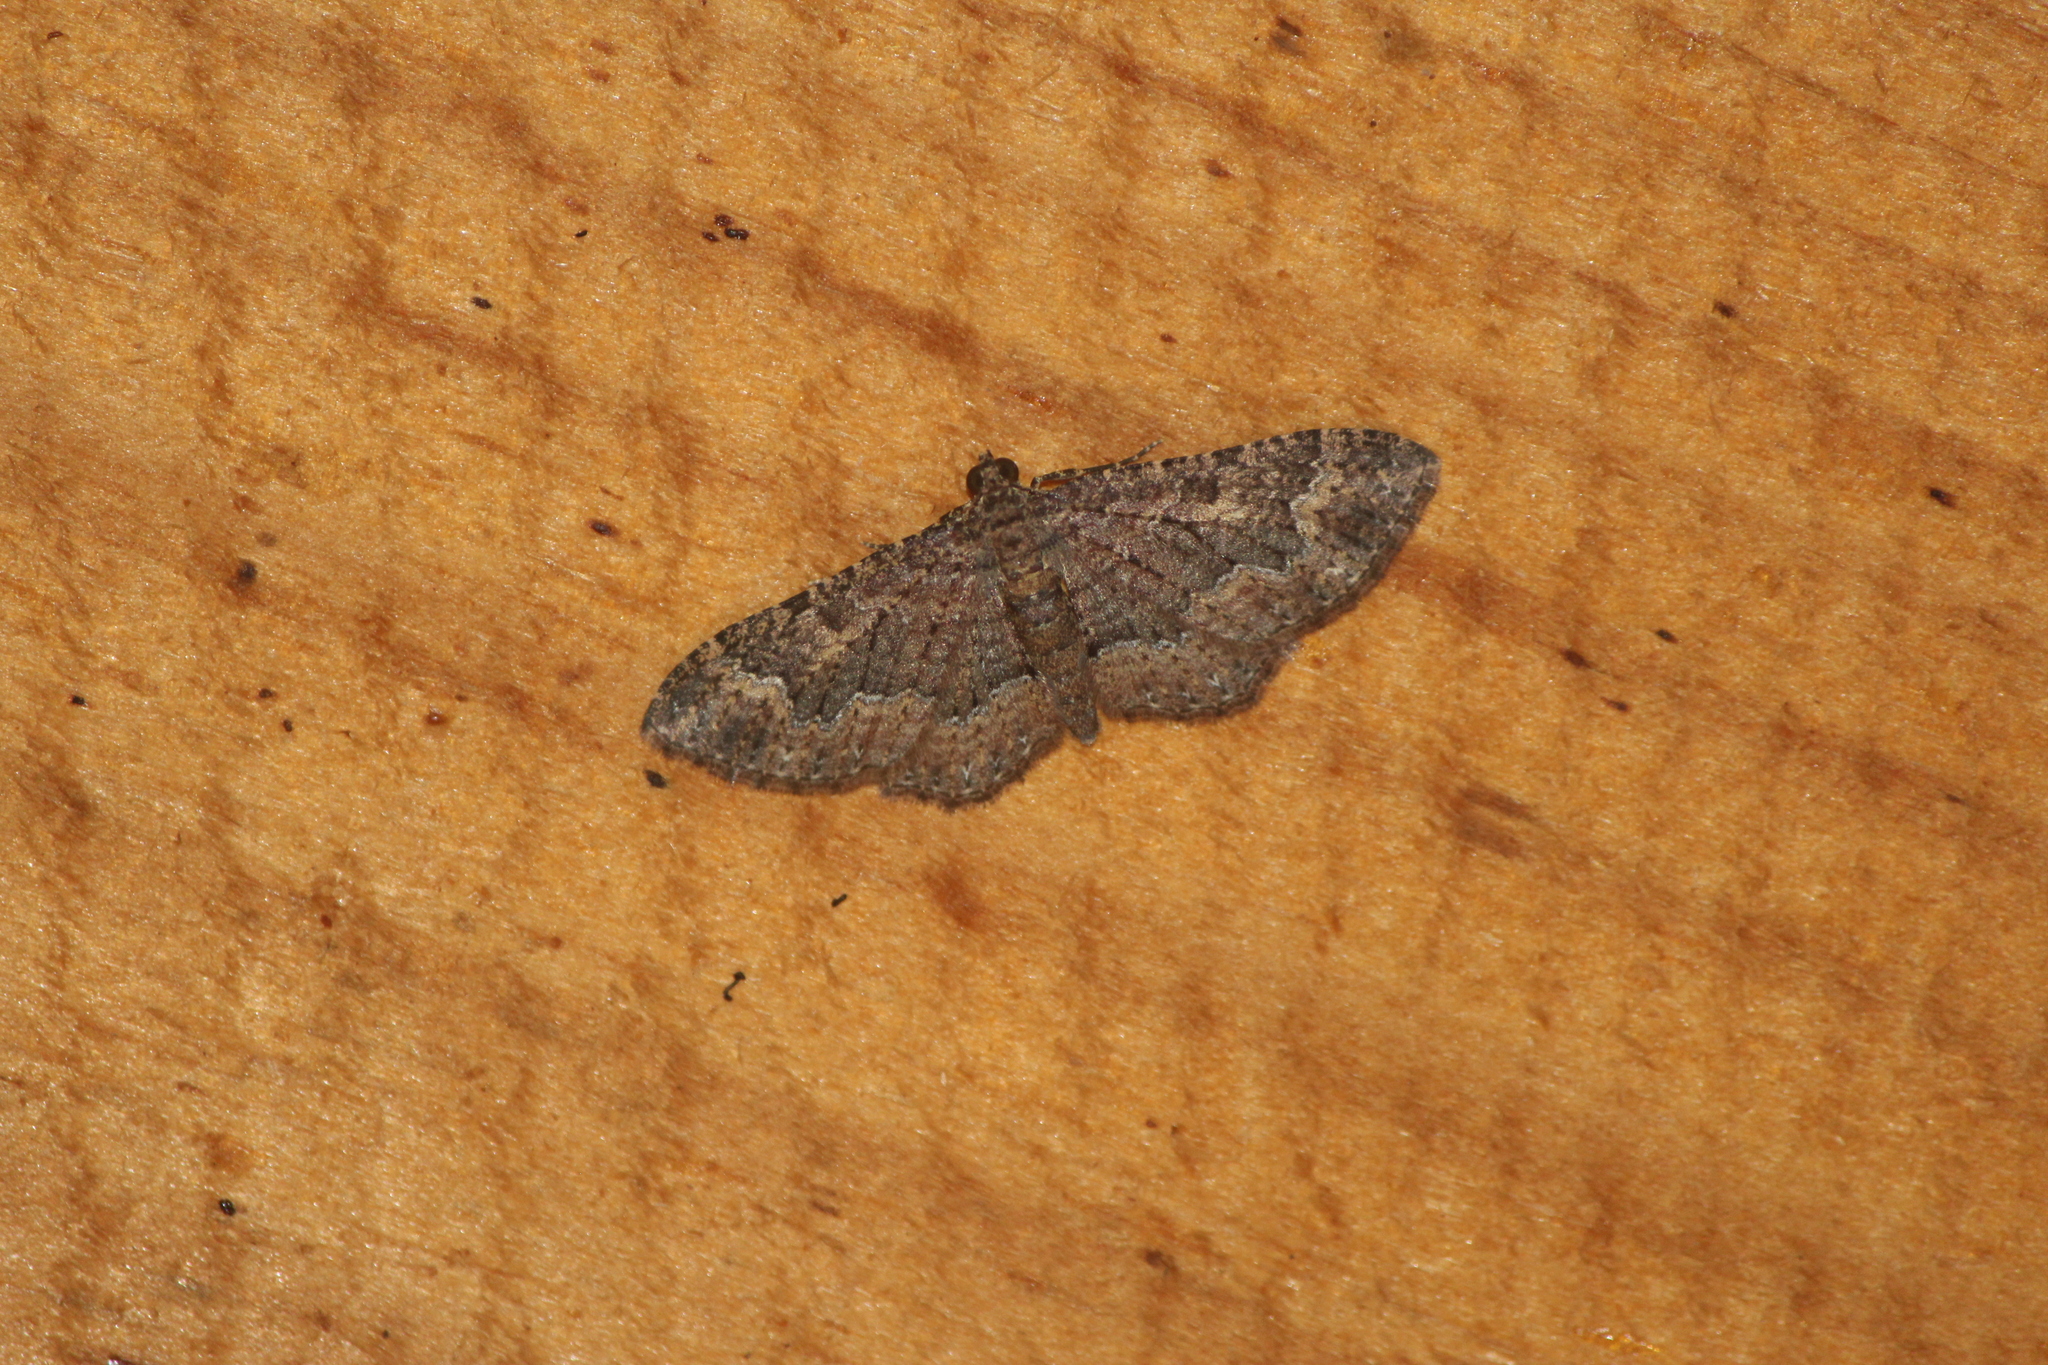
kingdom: Animalia
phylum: Arthropoda
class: Insecta
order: Lepidoptera
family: Geometridae
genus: Disclisioprocta
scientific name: Disclisioprocta stellata
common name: Somber carpet
